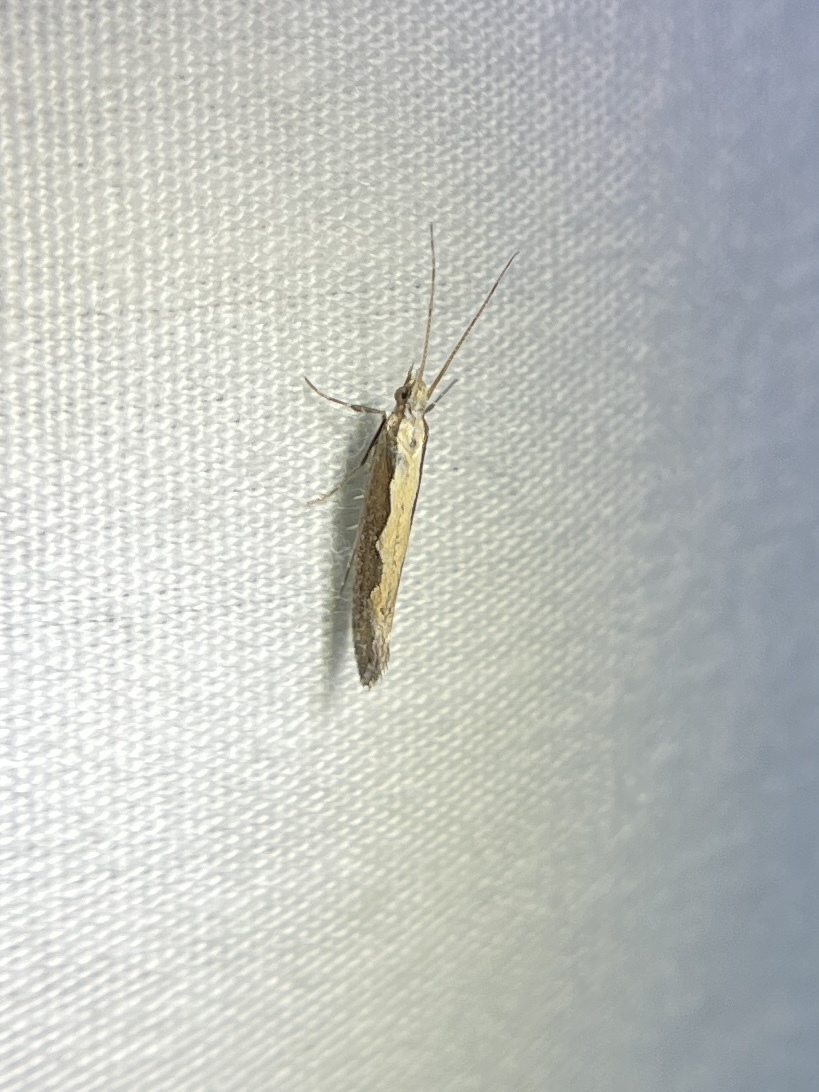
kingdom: Animalia
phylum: Arthropoda
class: Insecta
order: Lepidoptera
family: Plutellidae
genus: Plutella
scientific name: Plutella xylostella
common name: Diamond-back moth
